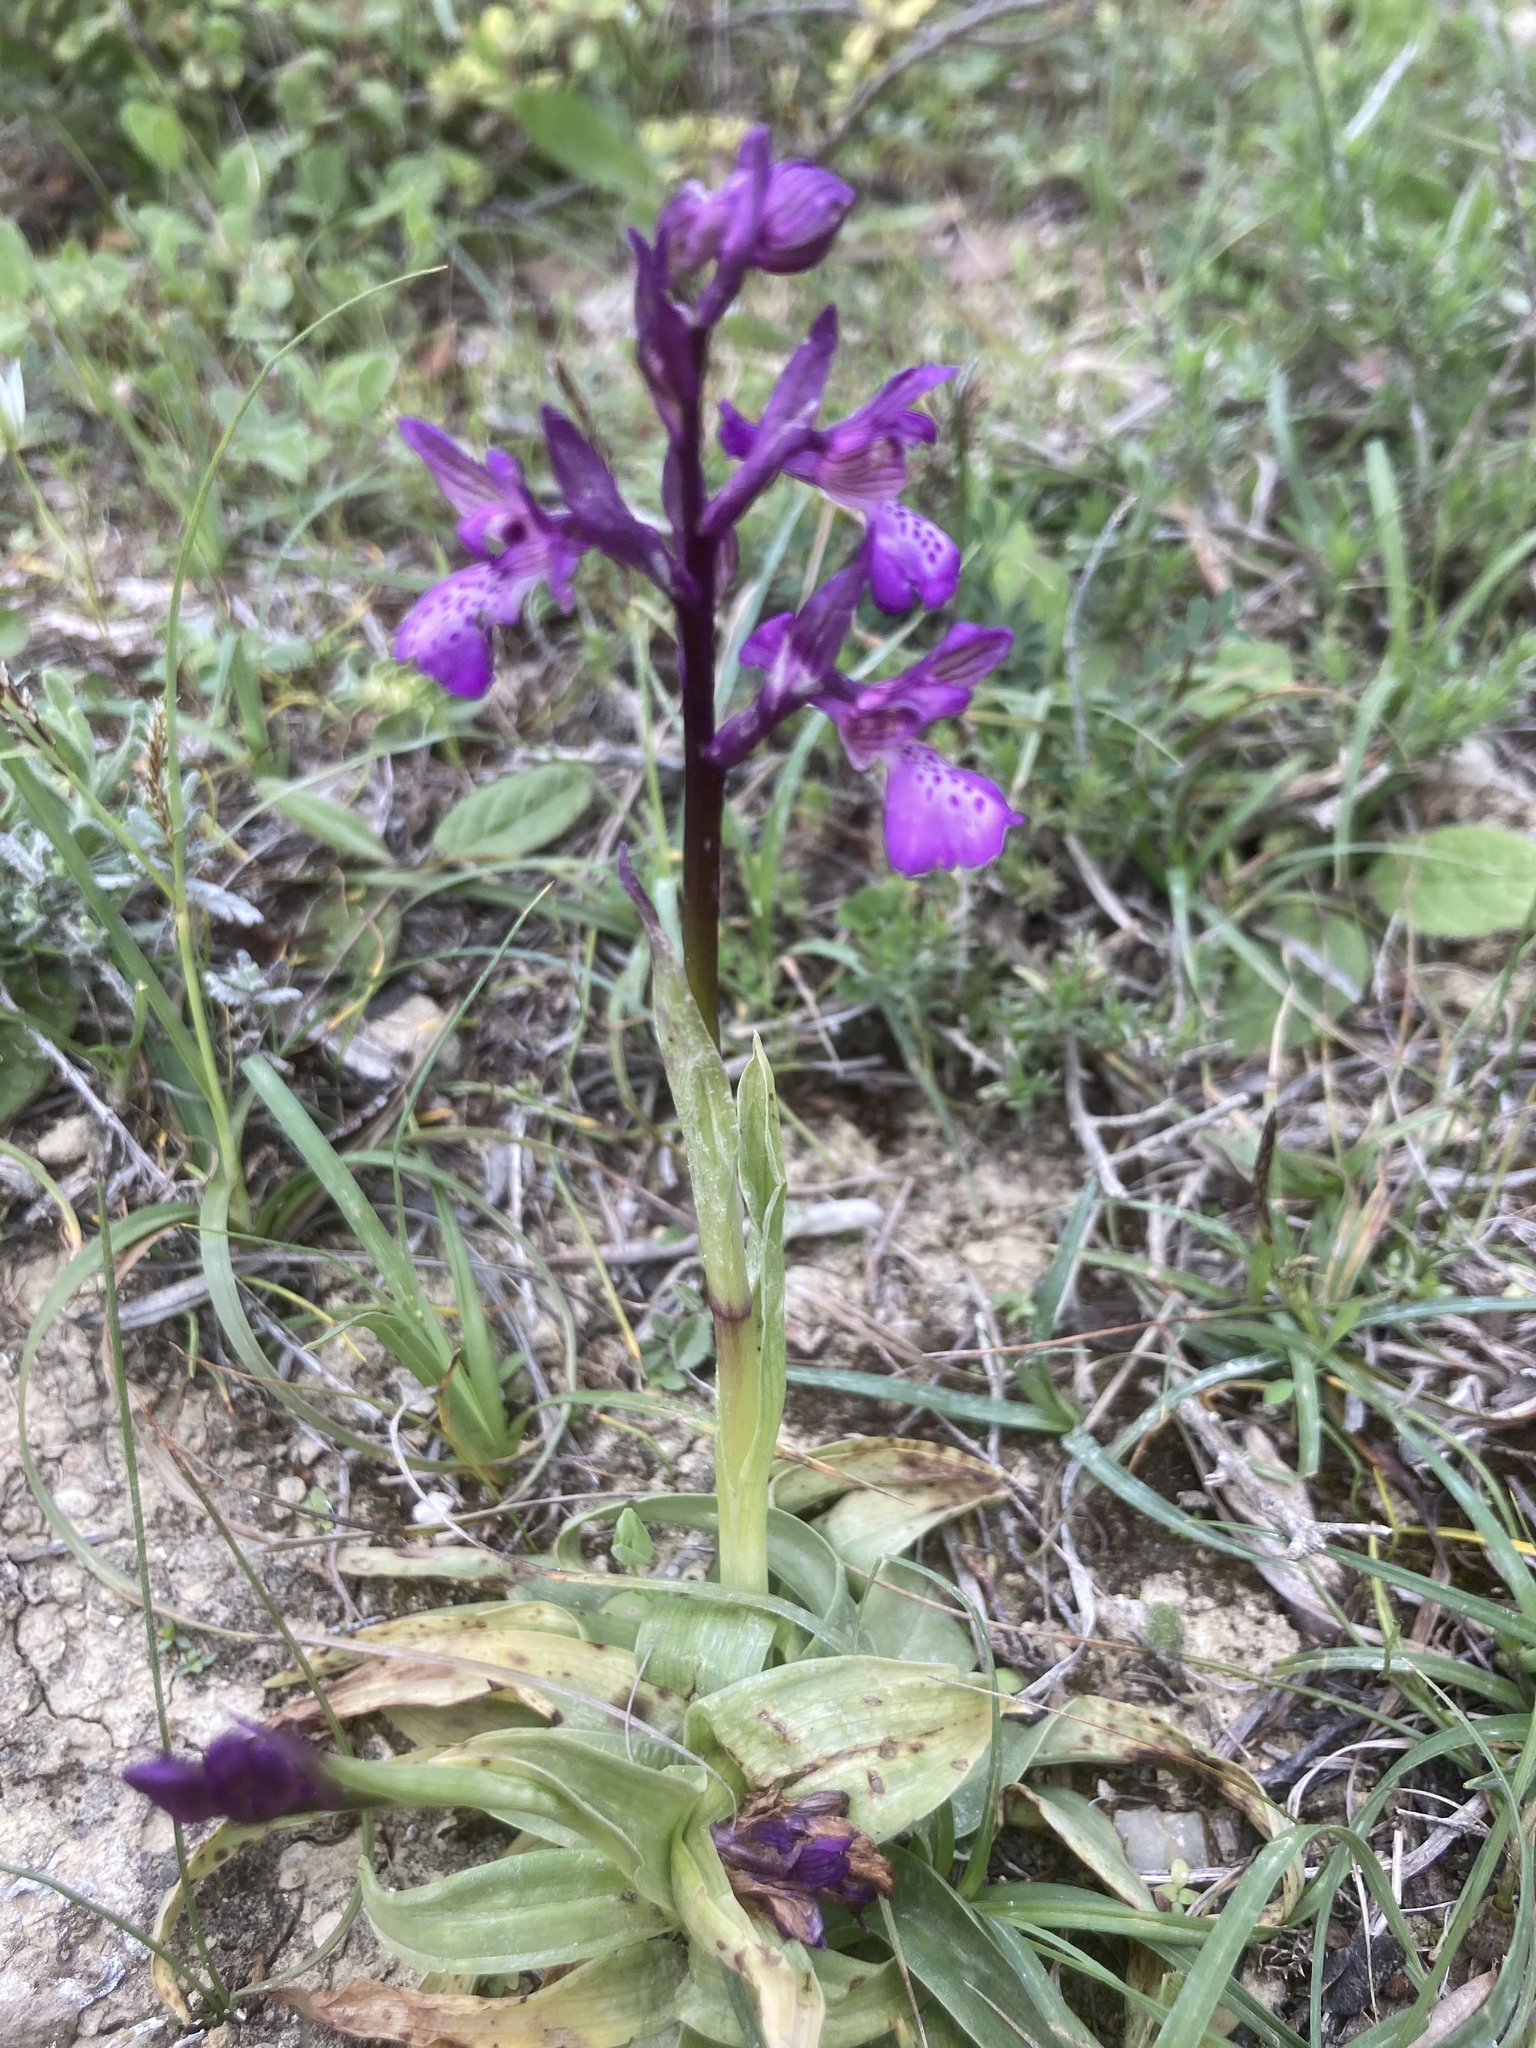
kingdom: Plantae
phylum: Tracheophyta
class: Liliopsida
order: Asparagales
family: Orchidaceae
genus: Anacamptis
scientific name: Anacamptis morio
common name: Green-winged orchid
